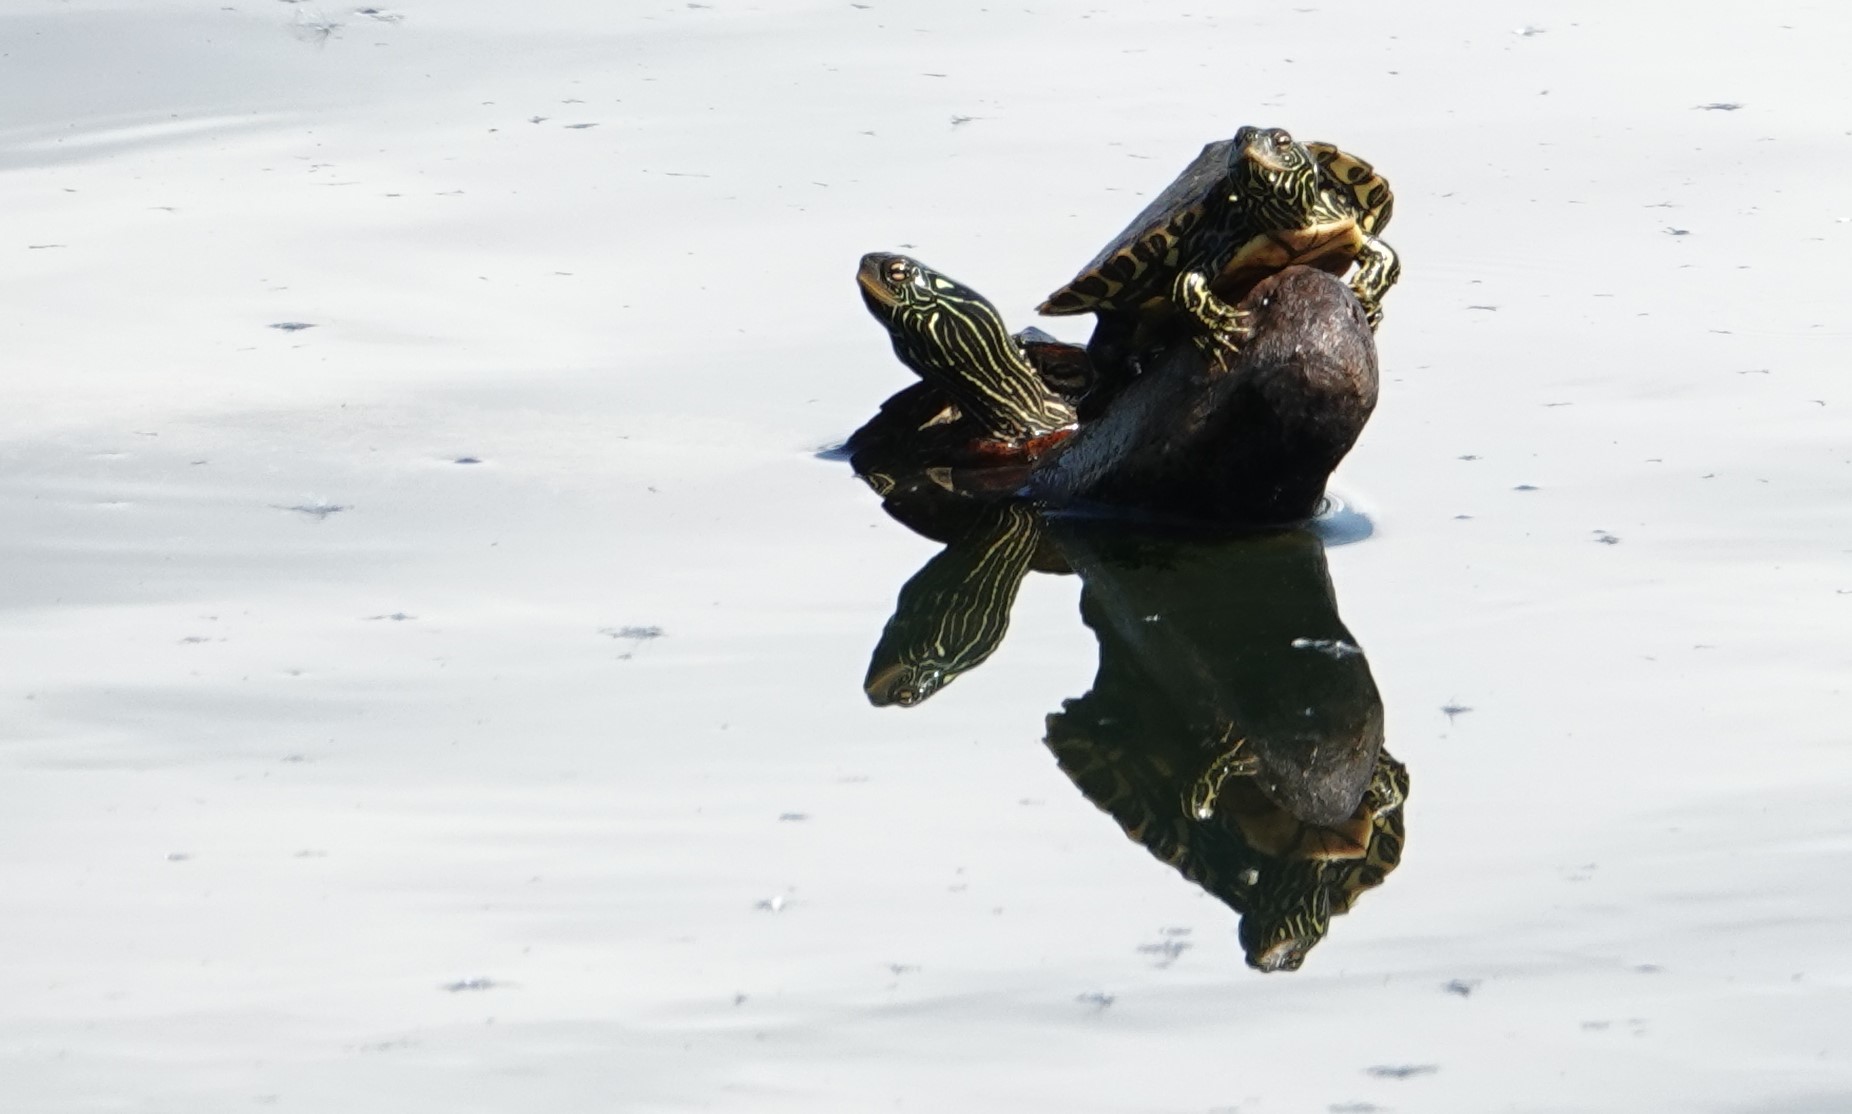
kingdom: Animalia
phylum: Chordata
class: Testudines
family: Emydidae
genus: Graptemys
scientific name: Graptemys geographica
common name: Common map turtle
